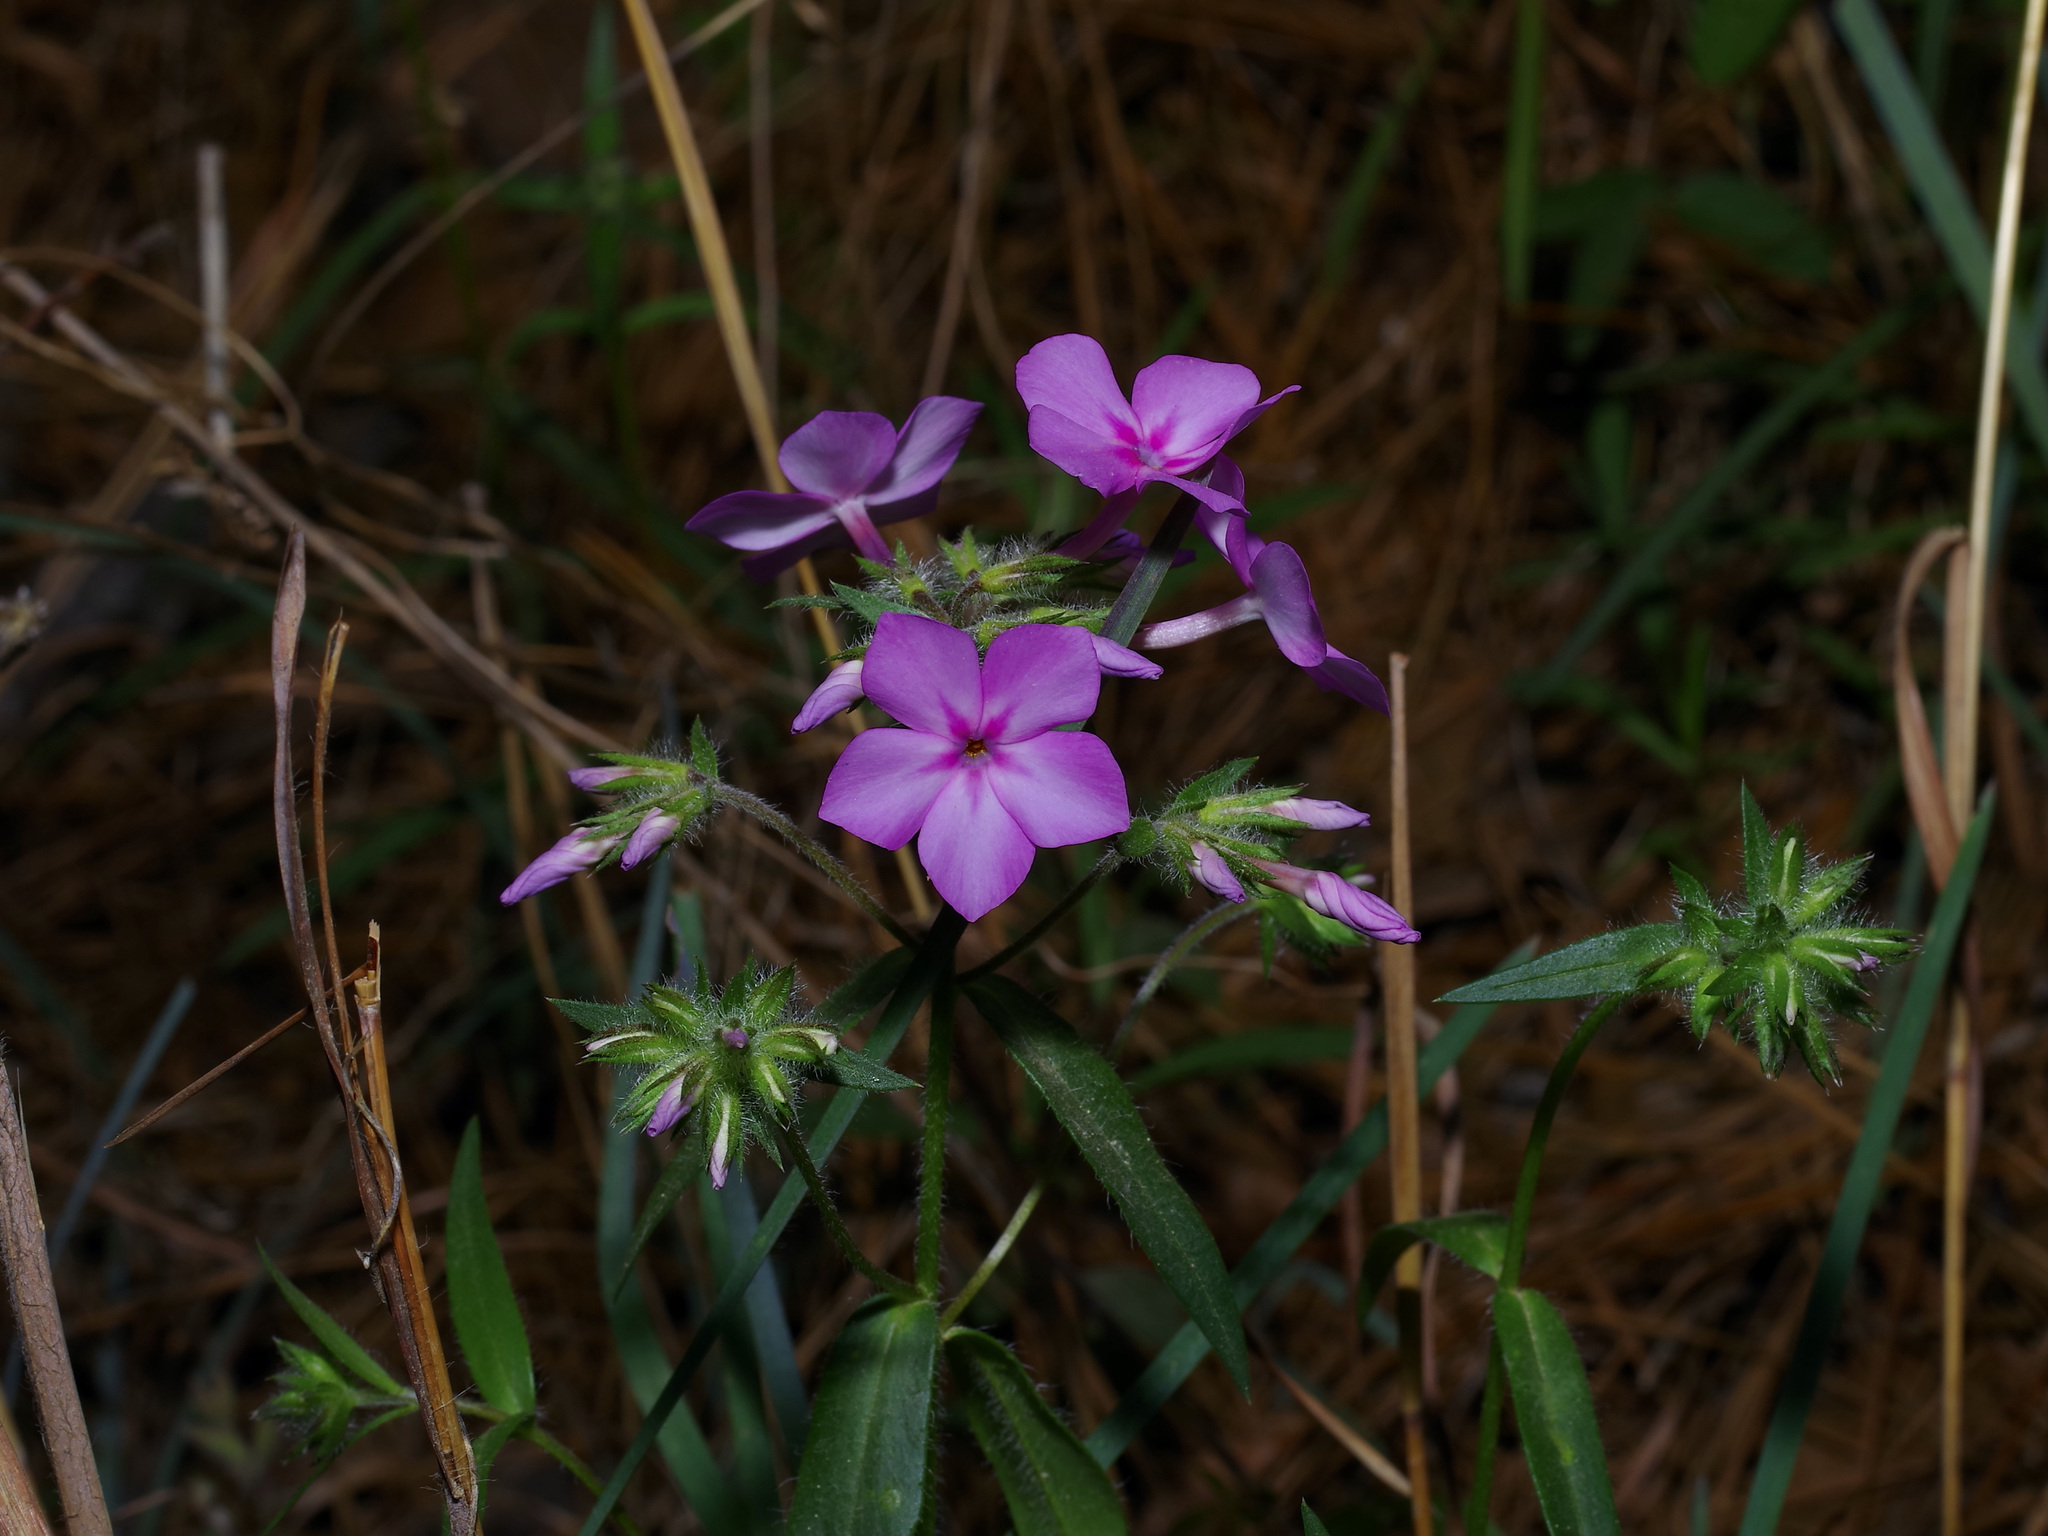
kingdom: Plantae
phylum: Tracheophyta
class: Magnoliopsida
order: Ericales
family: Polemoniaceae
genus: Phlox
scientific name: Phlox pilosa
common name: Prairie phlox
